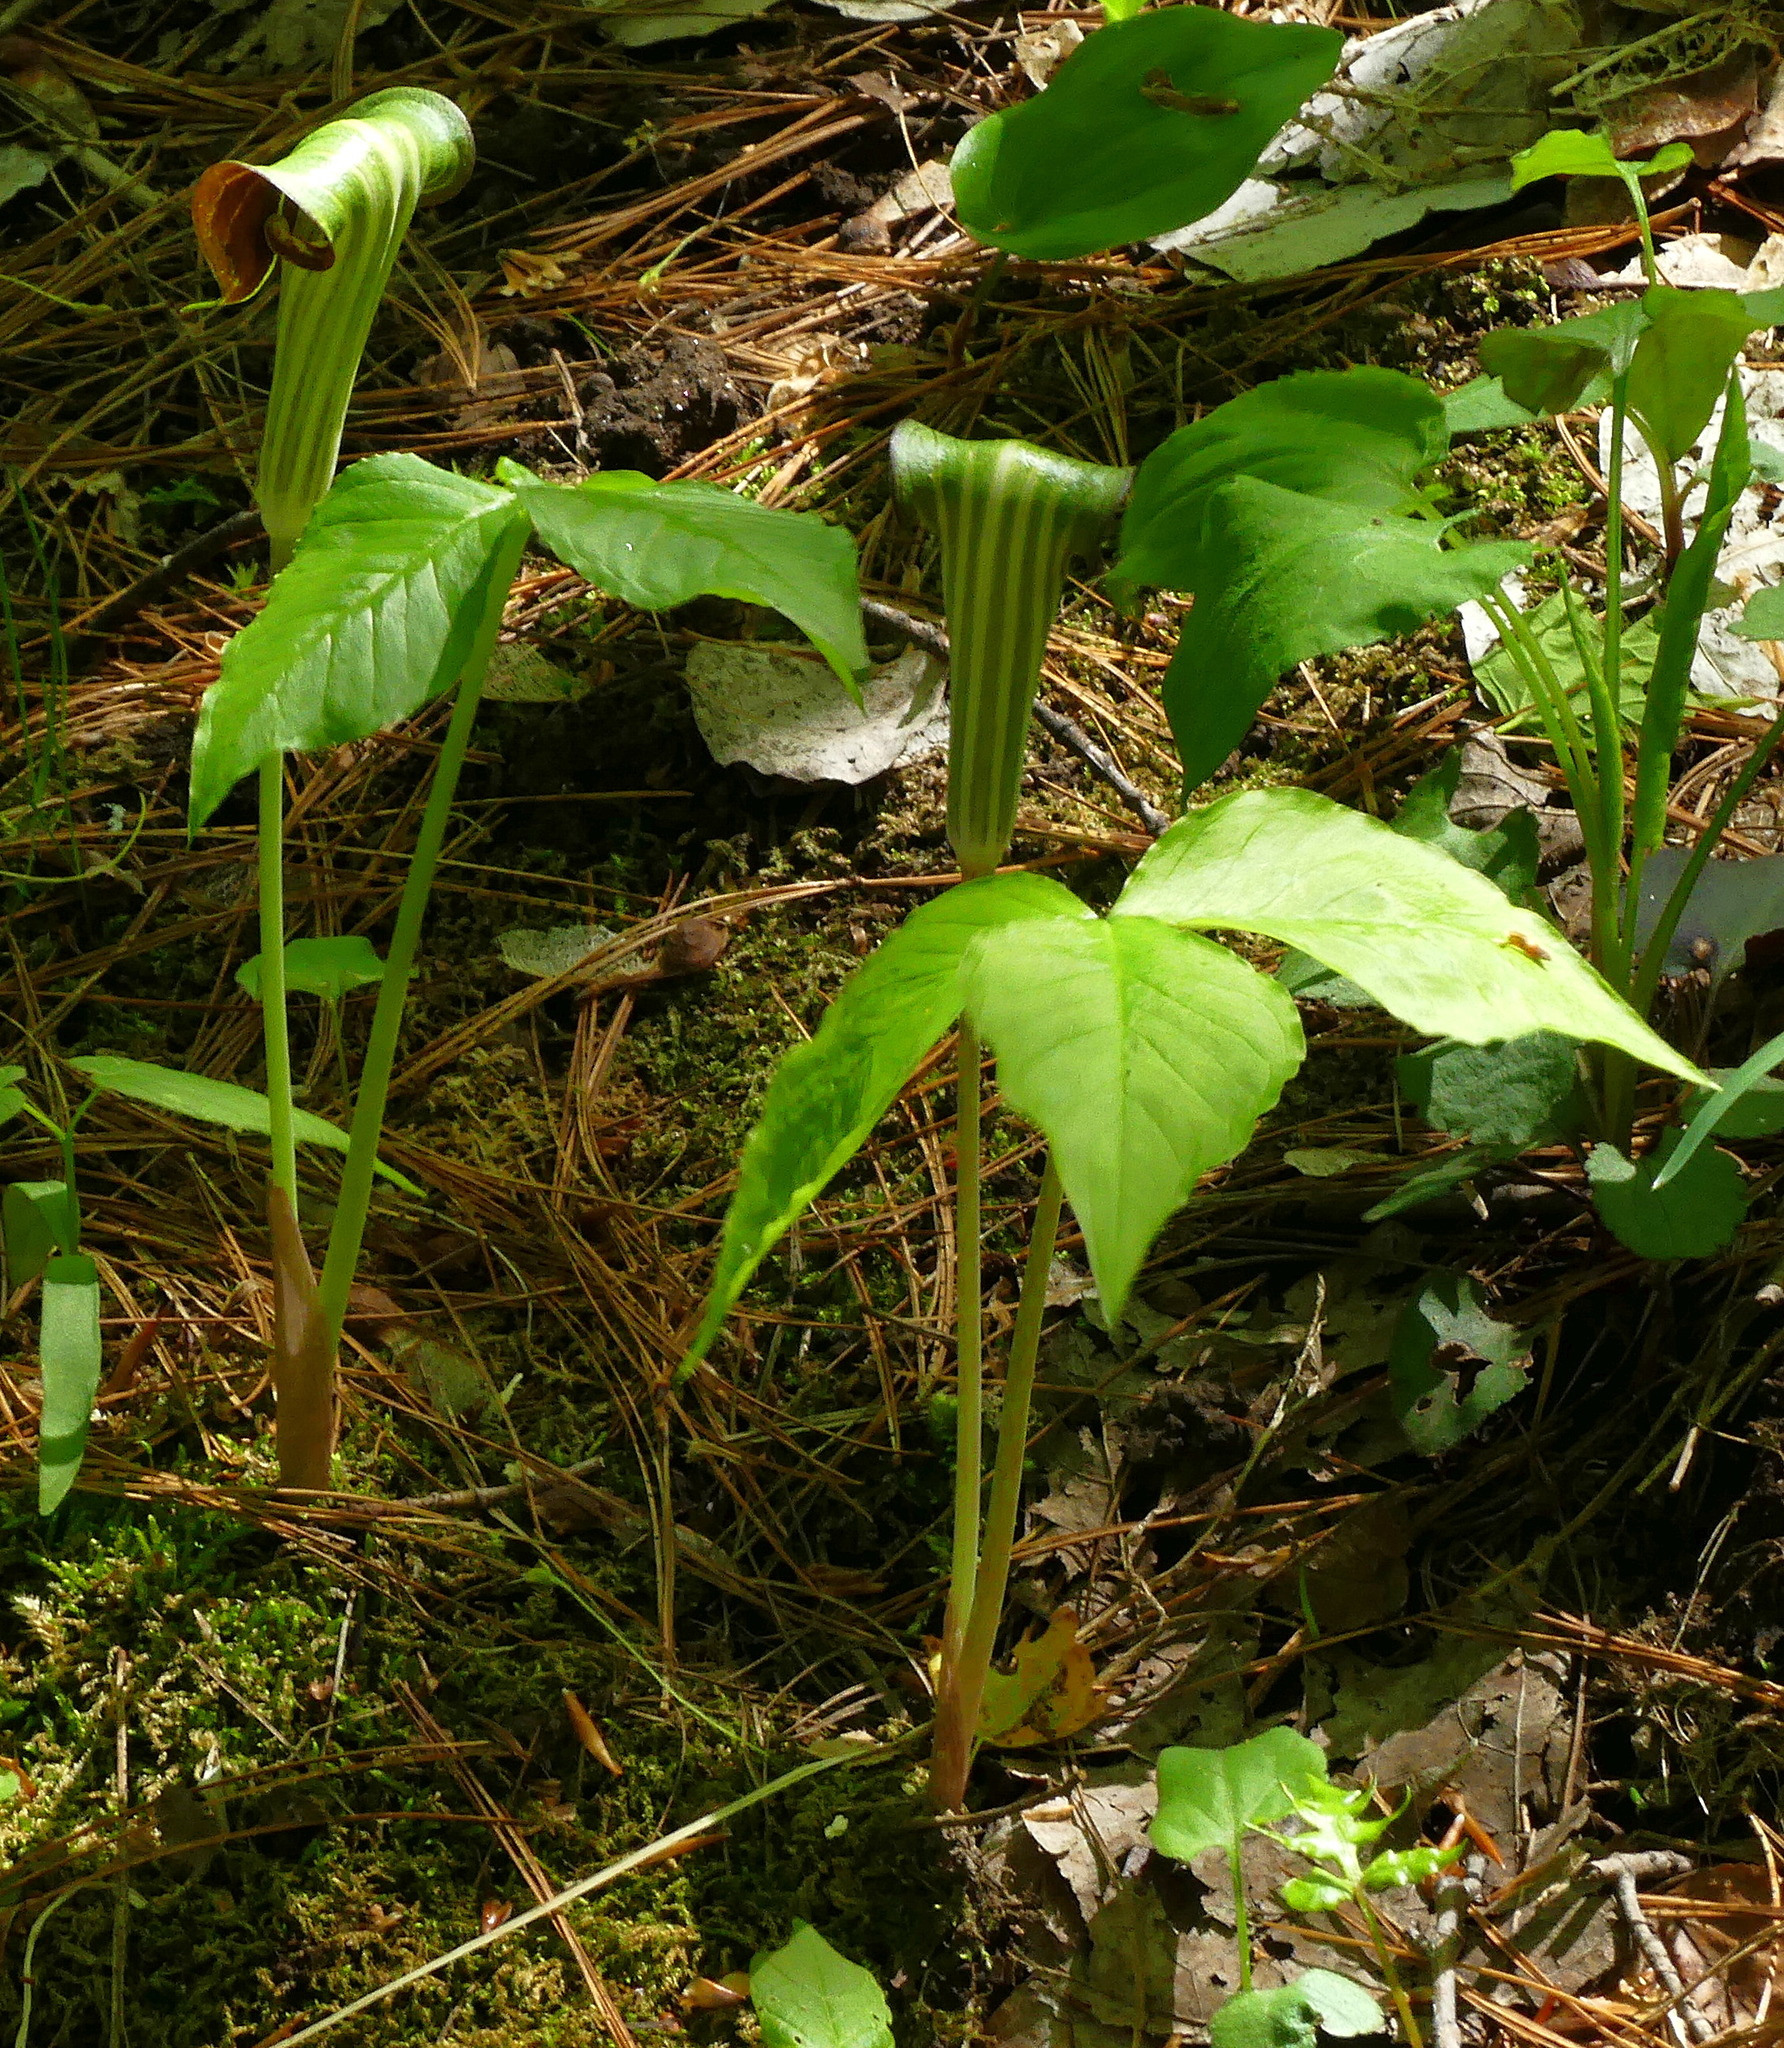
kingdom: Plantae
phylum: Tracheophyta
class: Liliopsida
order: Alismatales
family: Araceae
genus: Arisaema
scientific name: Arisaema triphyllum
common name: Jack-in-the-pulpit
